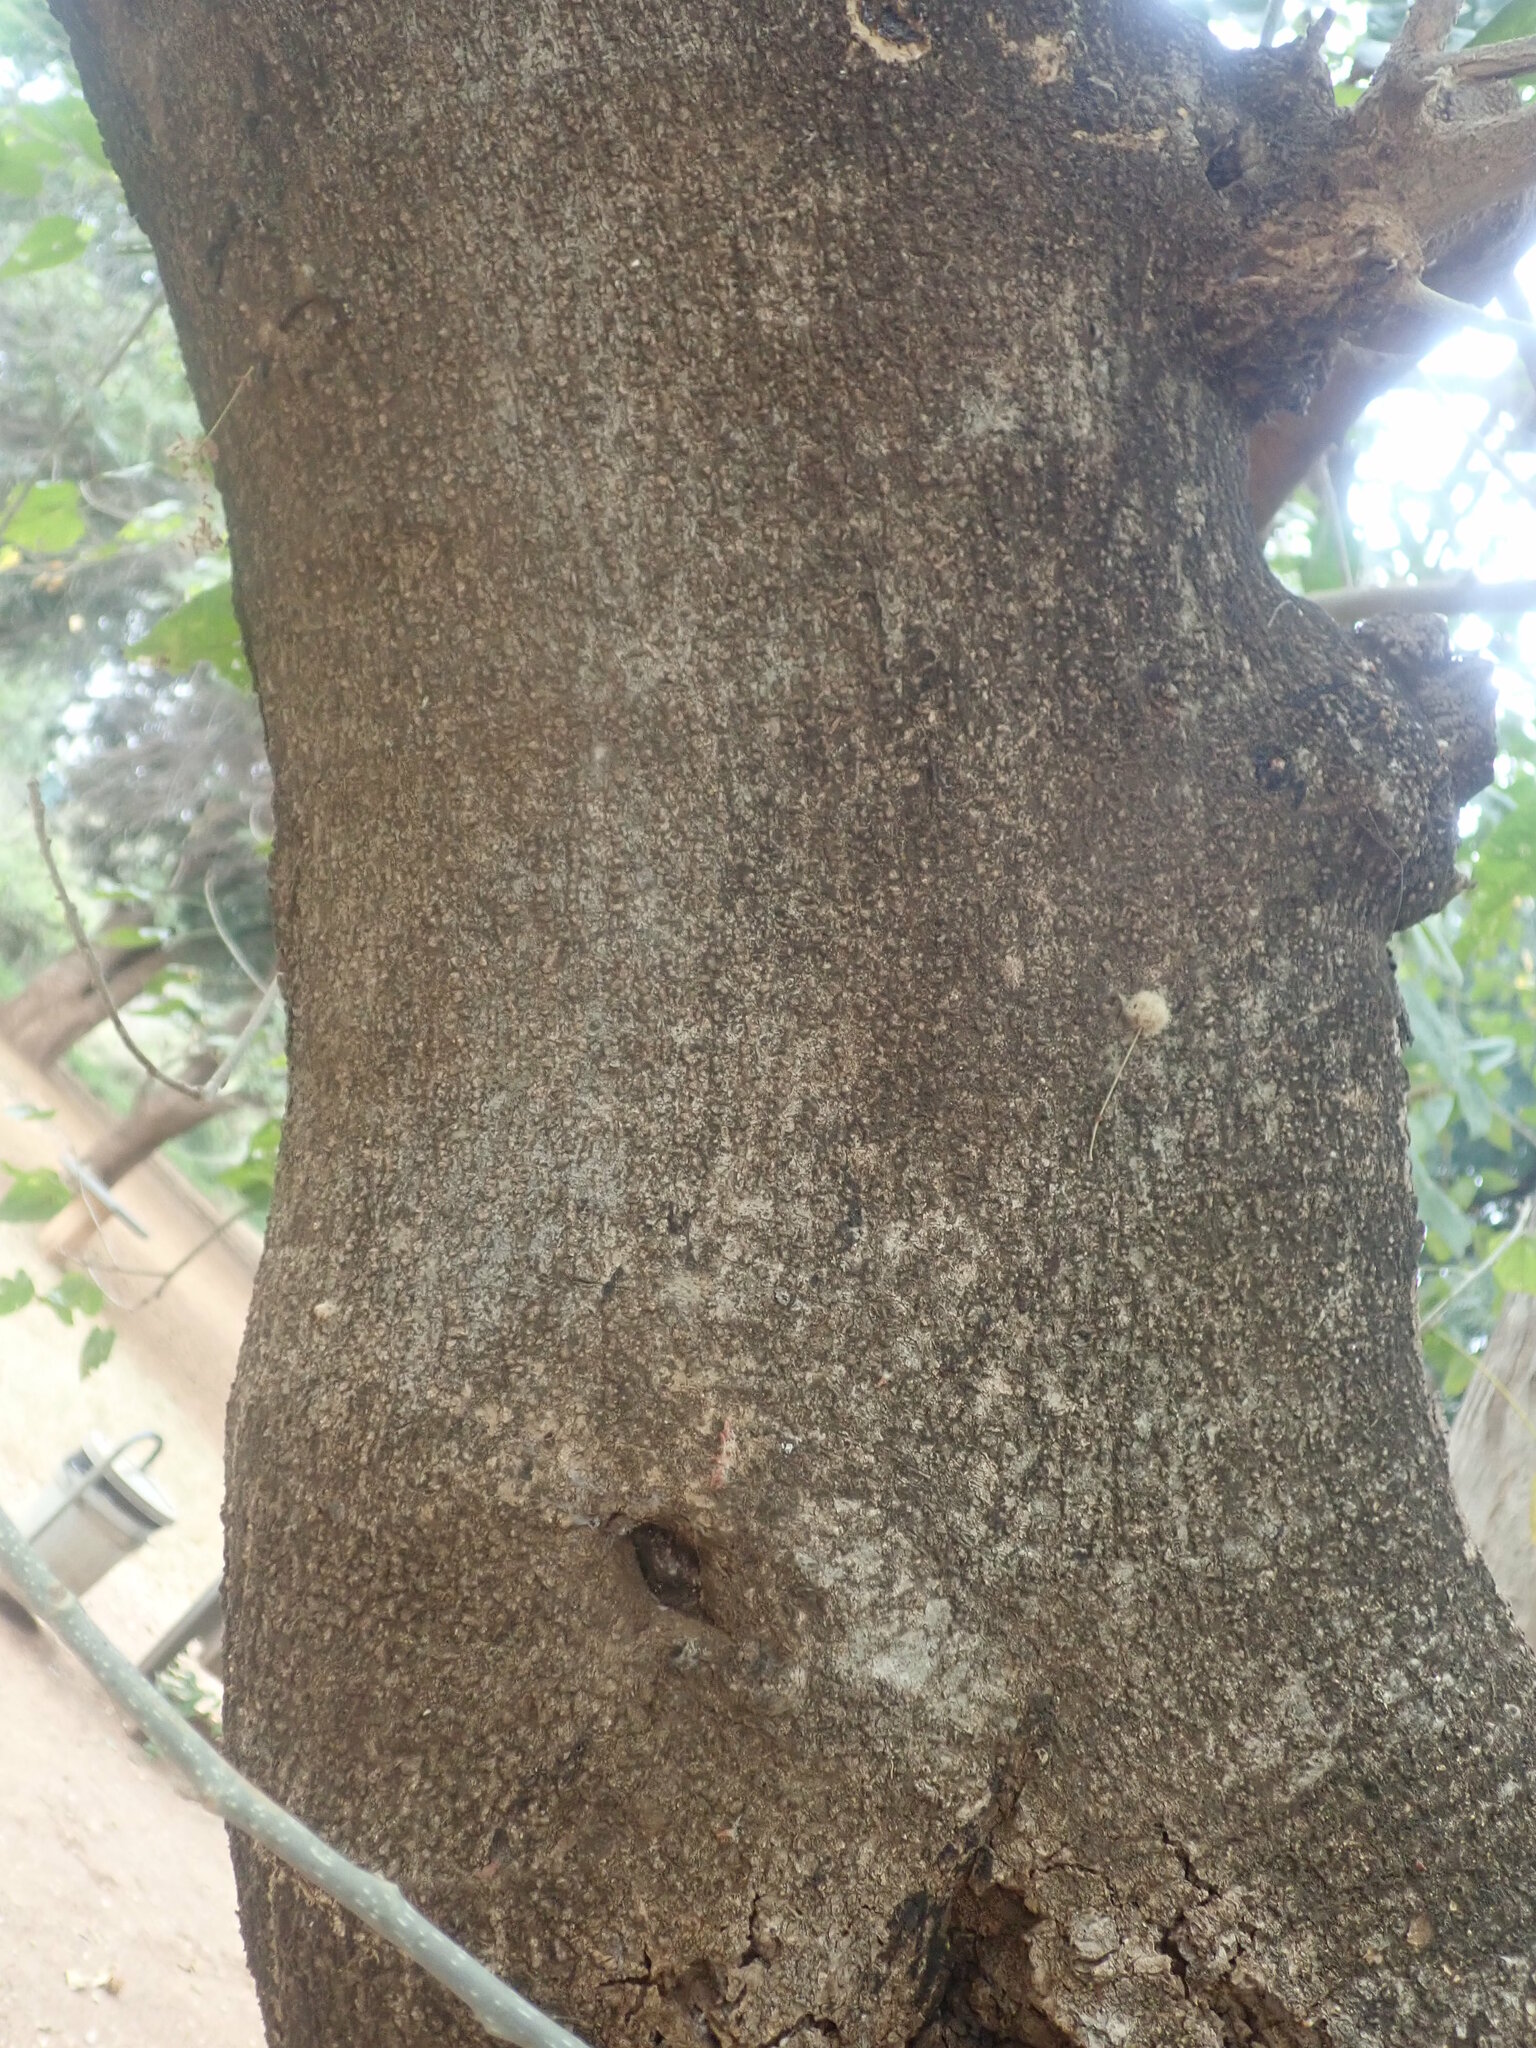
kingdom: Plantae
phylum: Tracheophyta
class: Magnoliopsida
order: Malpighiales
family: Euphorbiaceae
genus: Croton
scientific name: Croton megalobotrys
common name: Large fever berry
